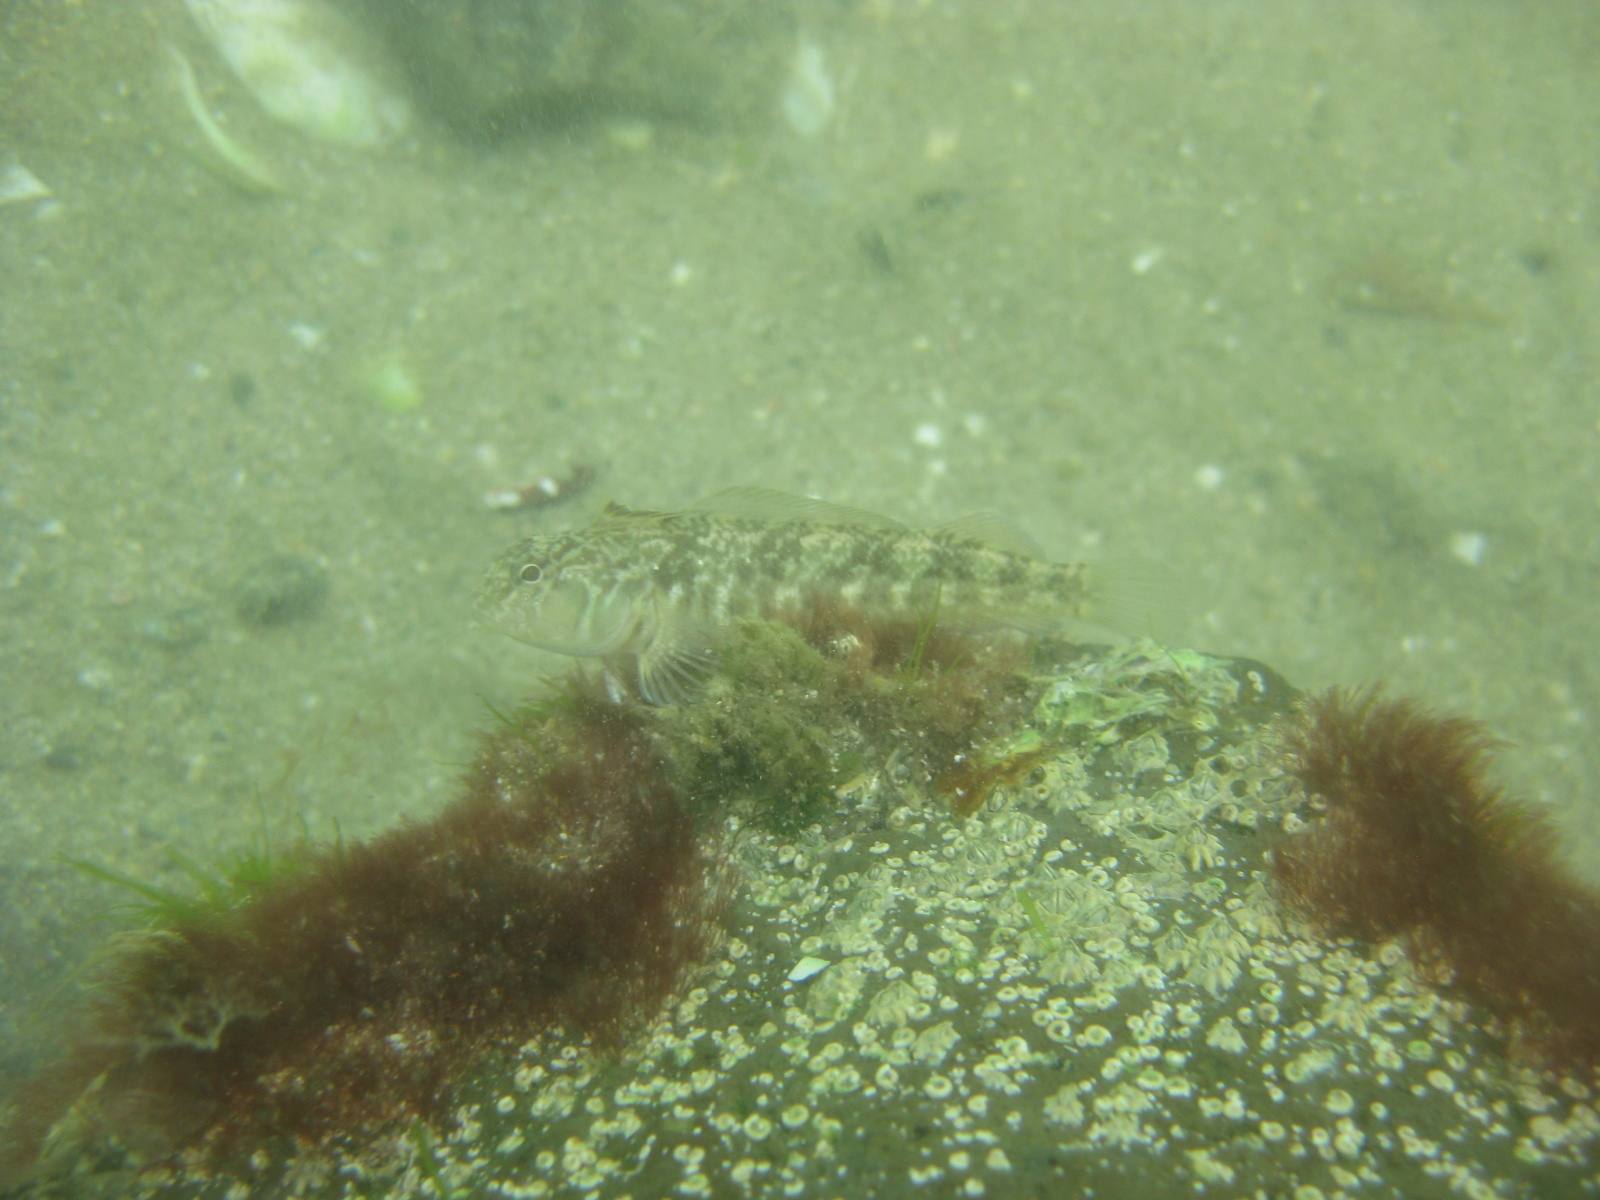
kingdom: Animalia
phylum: Chordata
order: Perciformes
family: Tripterygiidae
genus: Forsterygion
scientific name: Forsterygion nigripenne
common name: Cockabully
